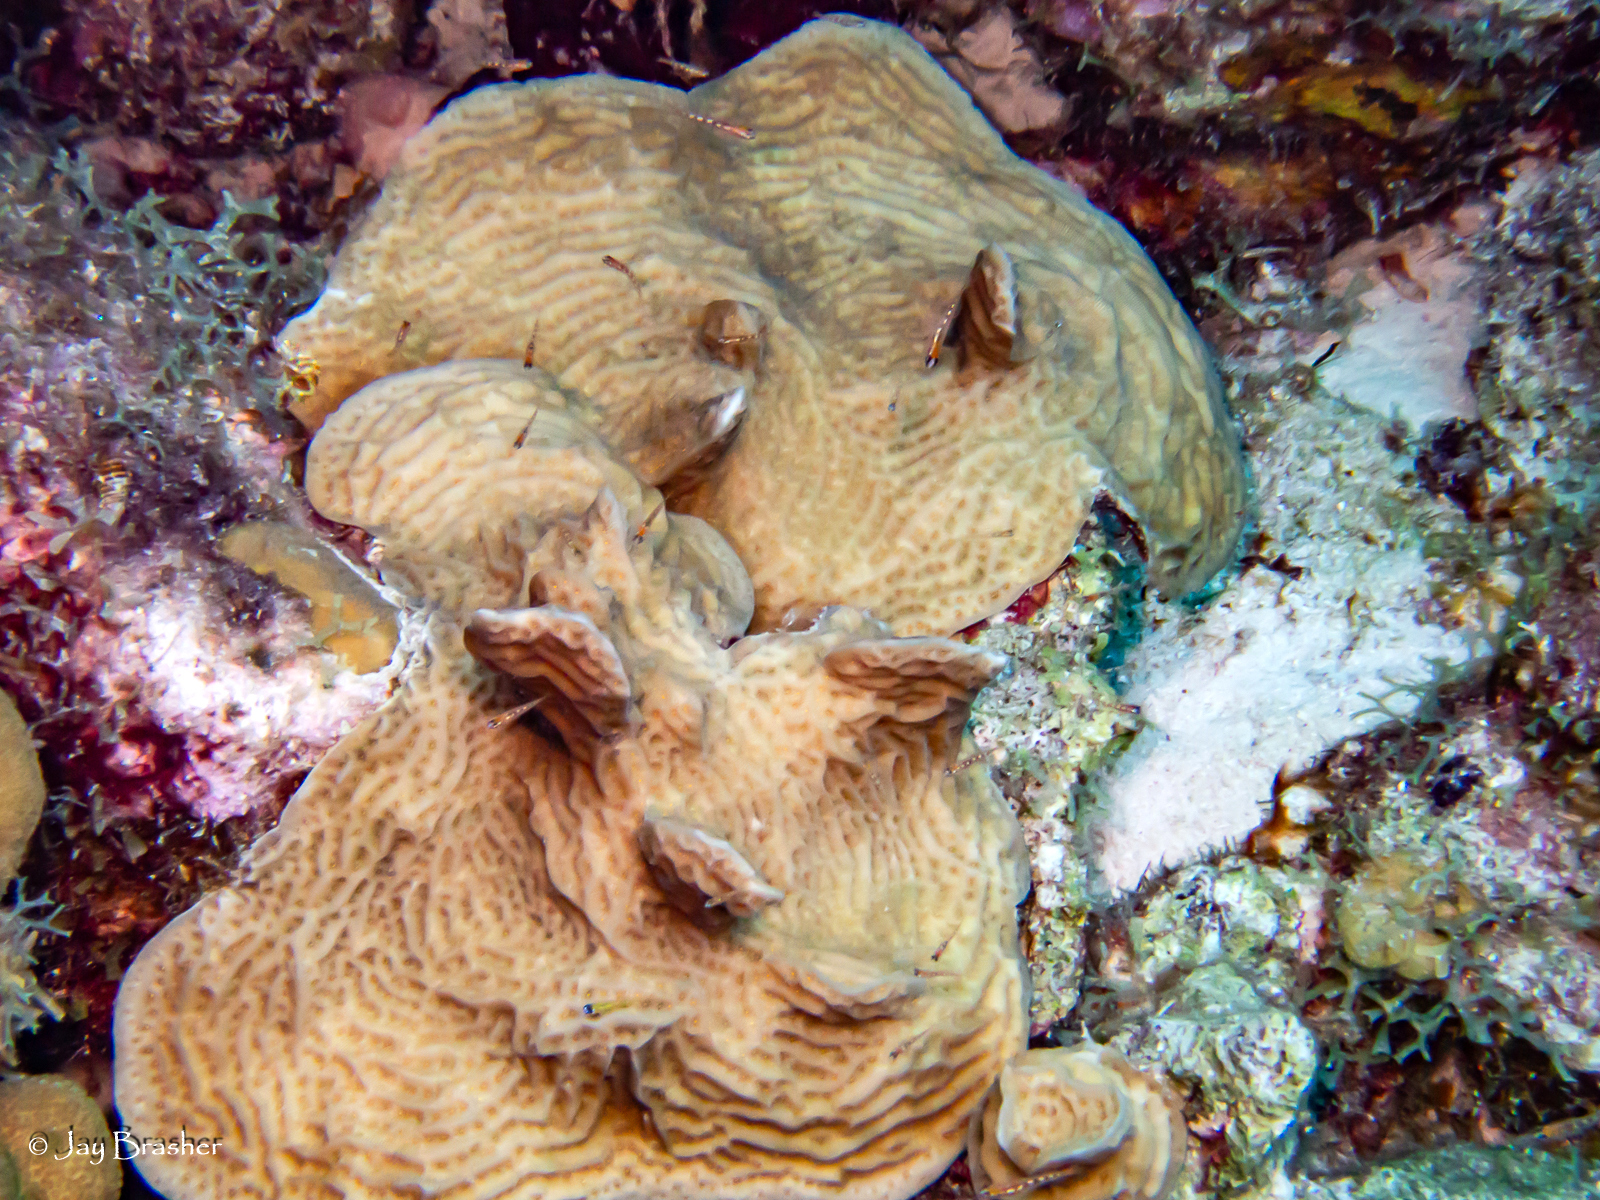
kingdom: Animalia
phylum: Cnidaria
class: Anthozoa
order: Scleractinia
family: Agariciidae
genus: Agaricia
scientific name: Agaricia agaricites
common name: Lettuce coral
